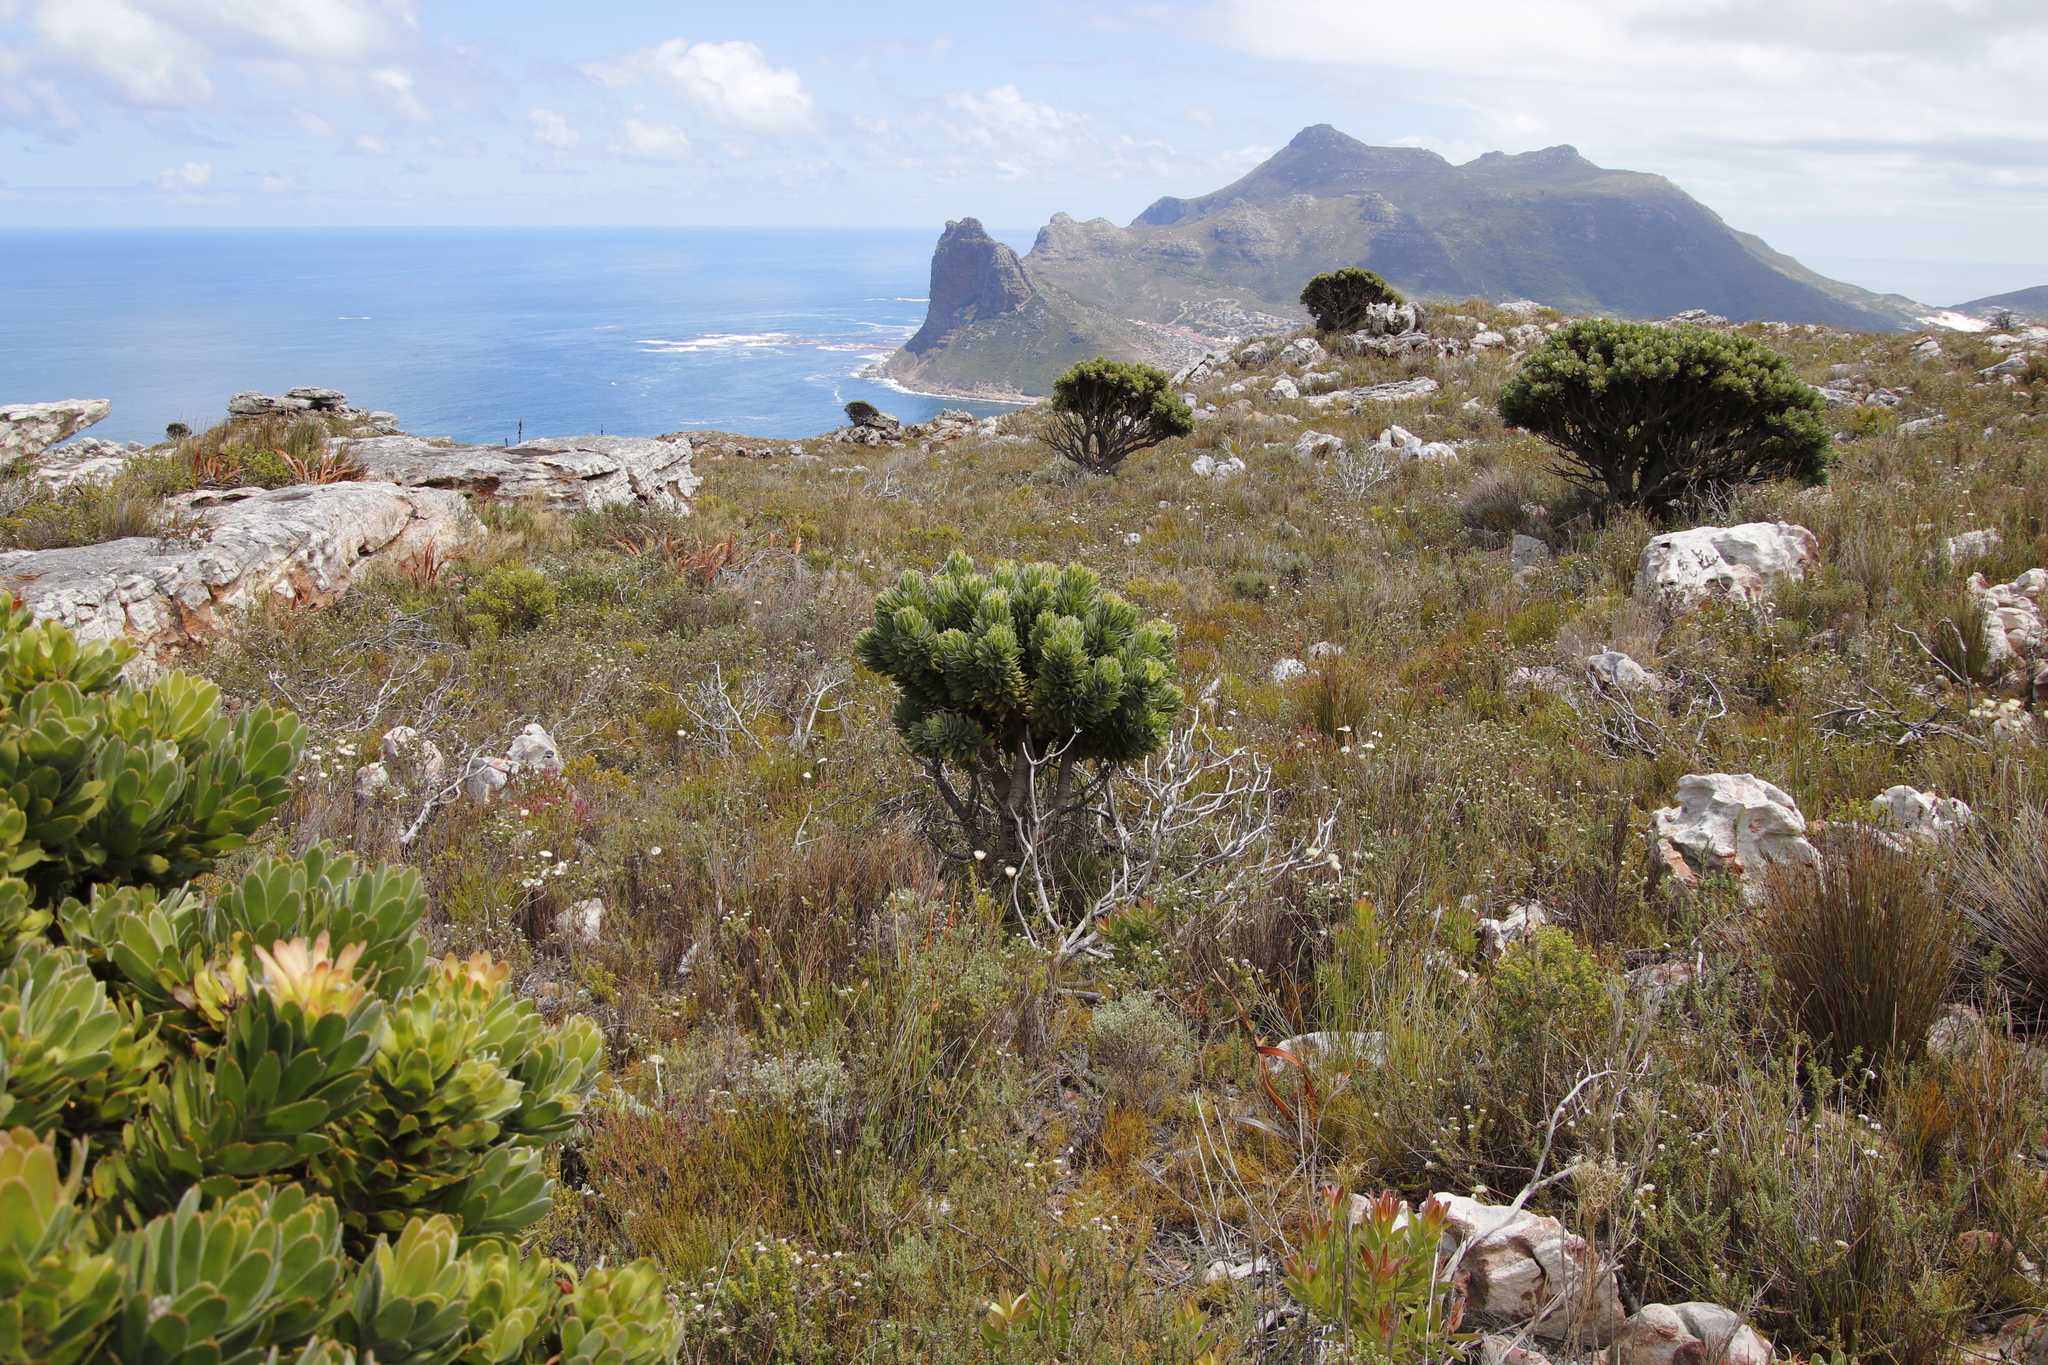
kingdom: Plantae
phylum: Tracheophyta
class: Magnoliopsida
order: Proteales
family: Proteaceae
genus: Mimetes
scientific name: Mimetes fimbriifolius
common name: Fringed bottlebrush
